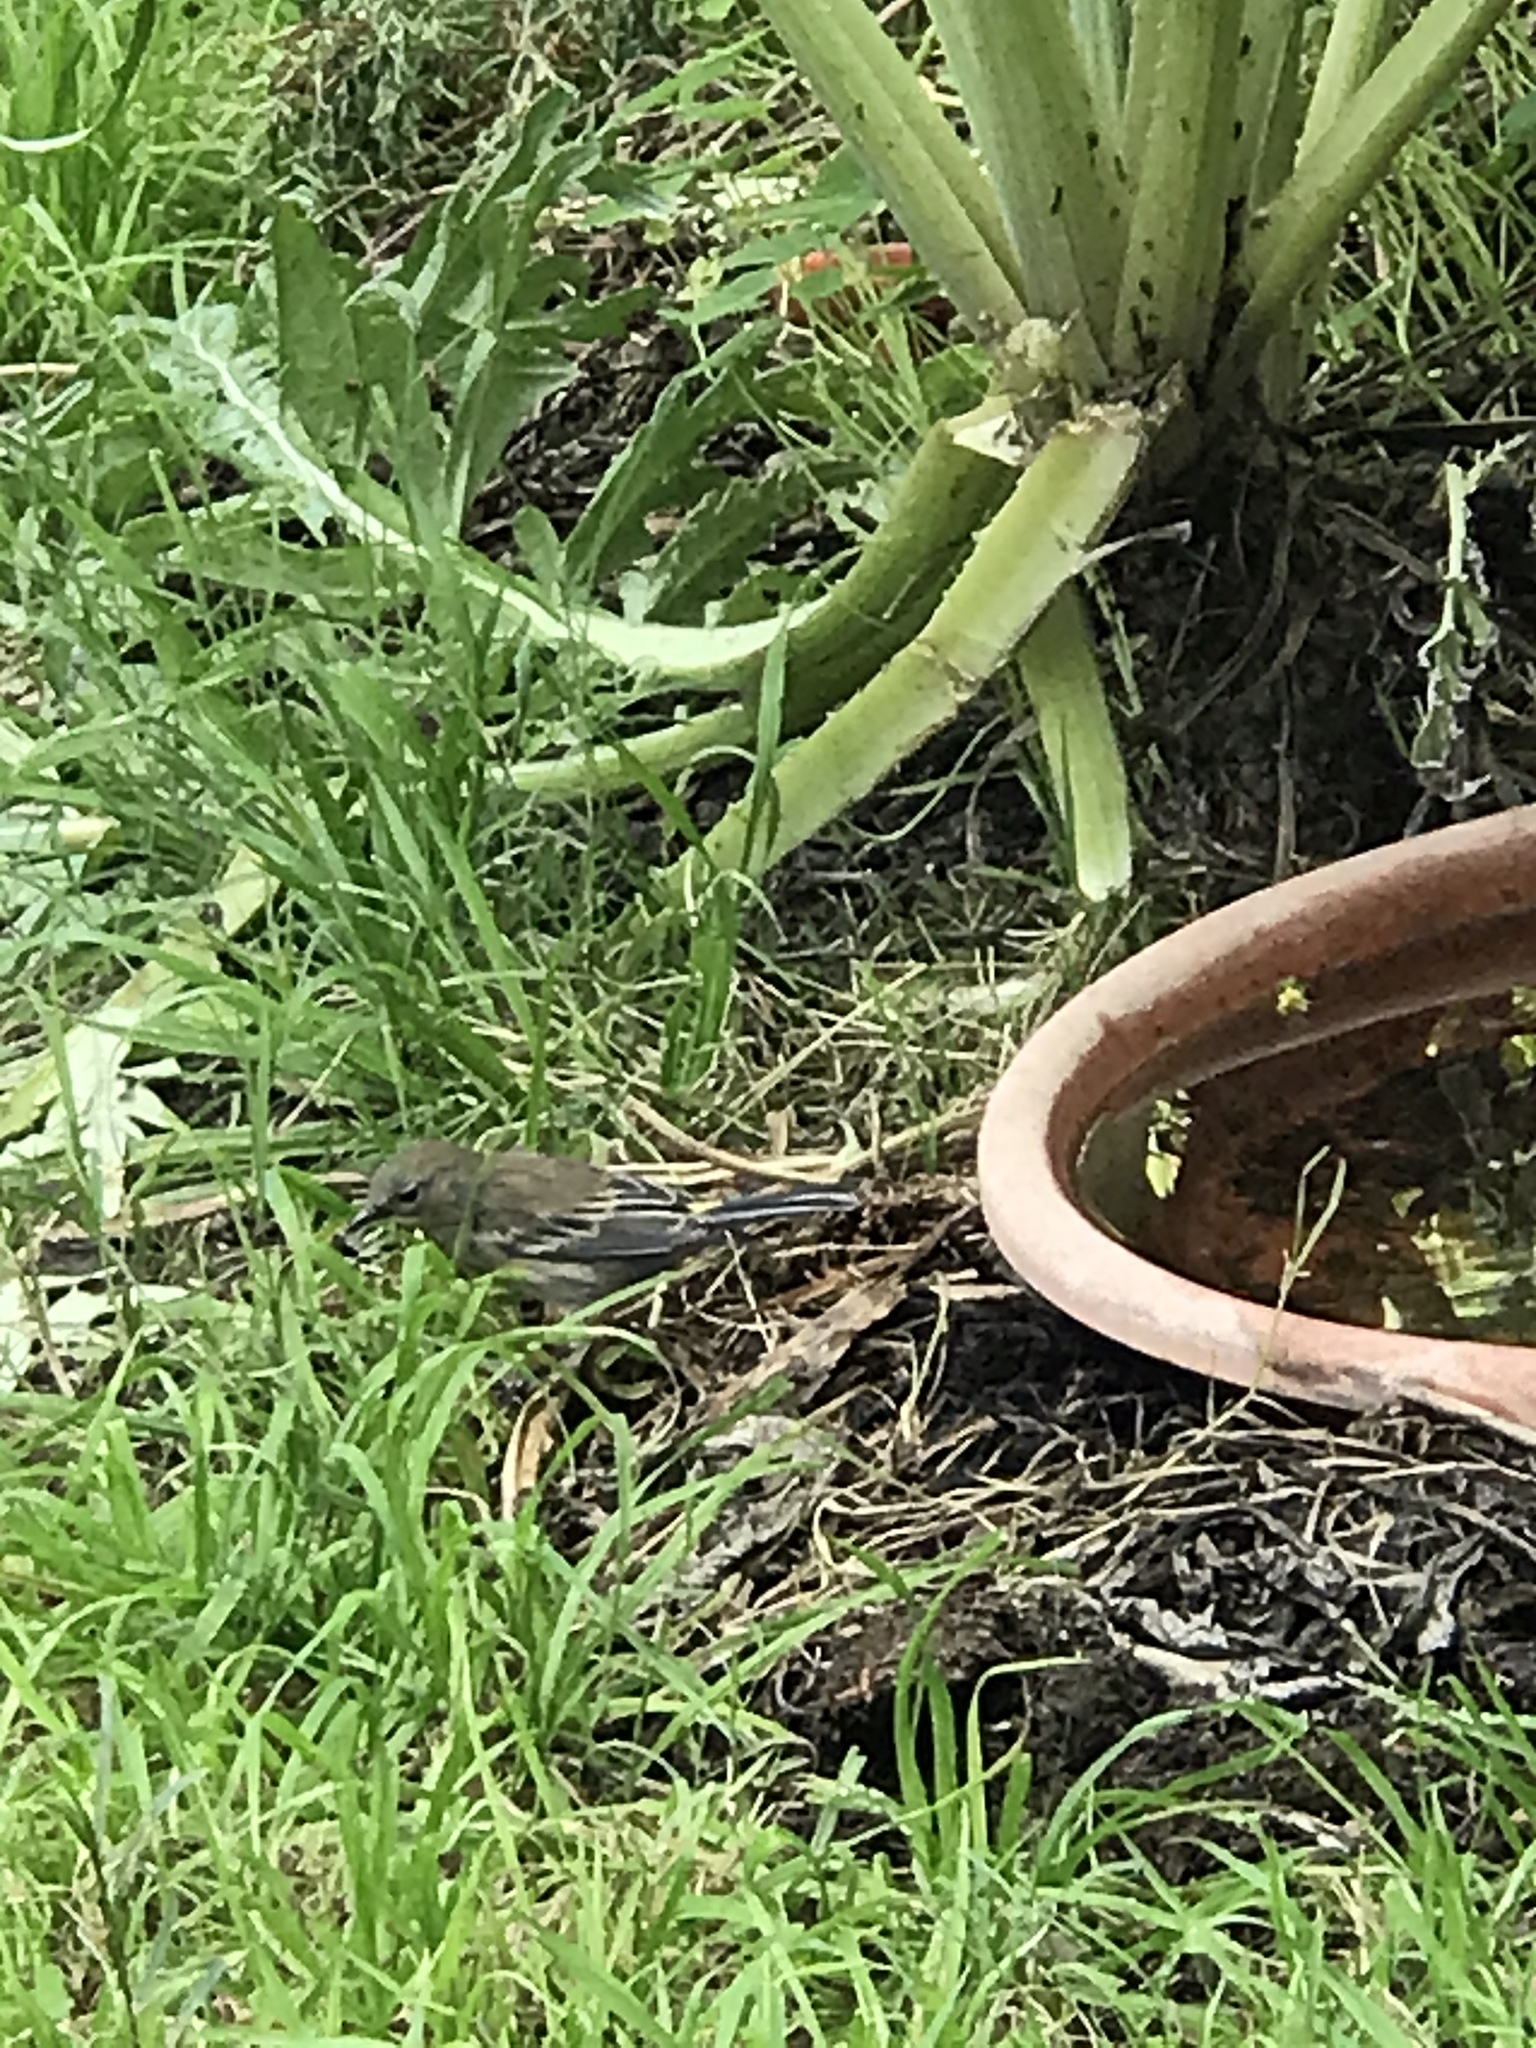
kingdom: Animalia
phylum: Chordata
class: Aves
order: Passeriformes
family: Parulidae
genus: Setophaga
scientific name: Setophaga coronata
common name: Myrtle warbler
